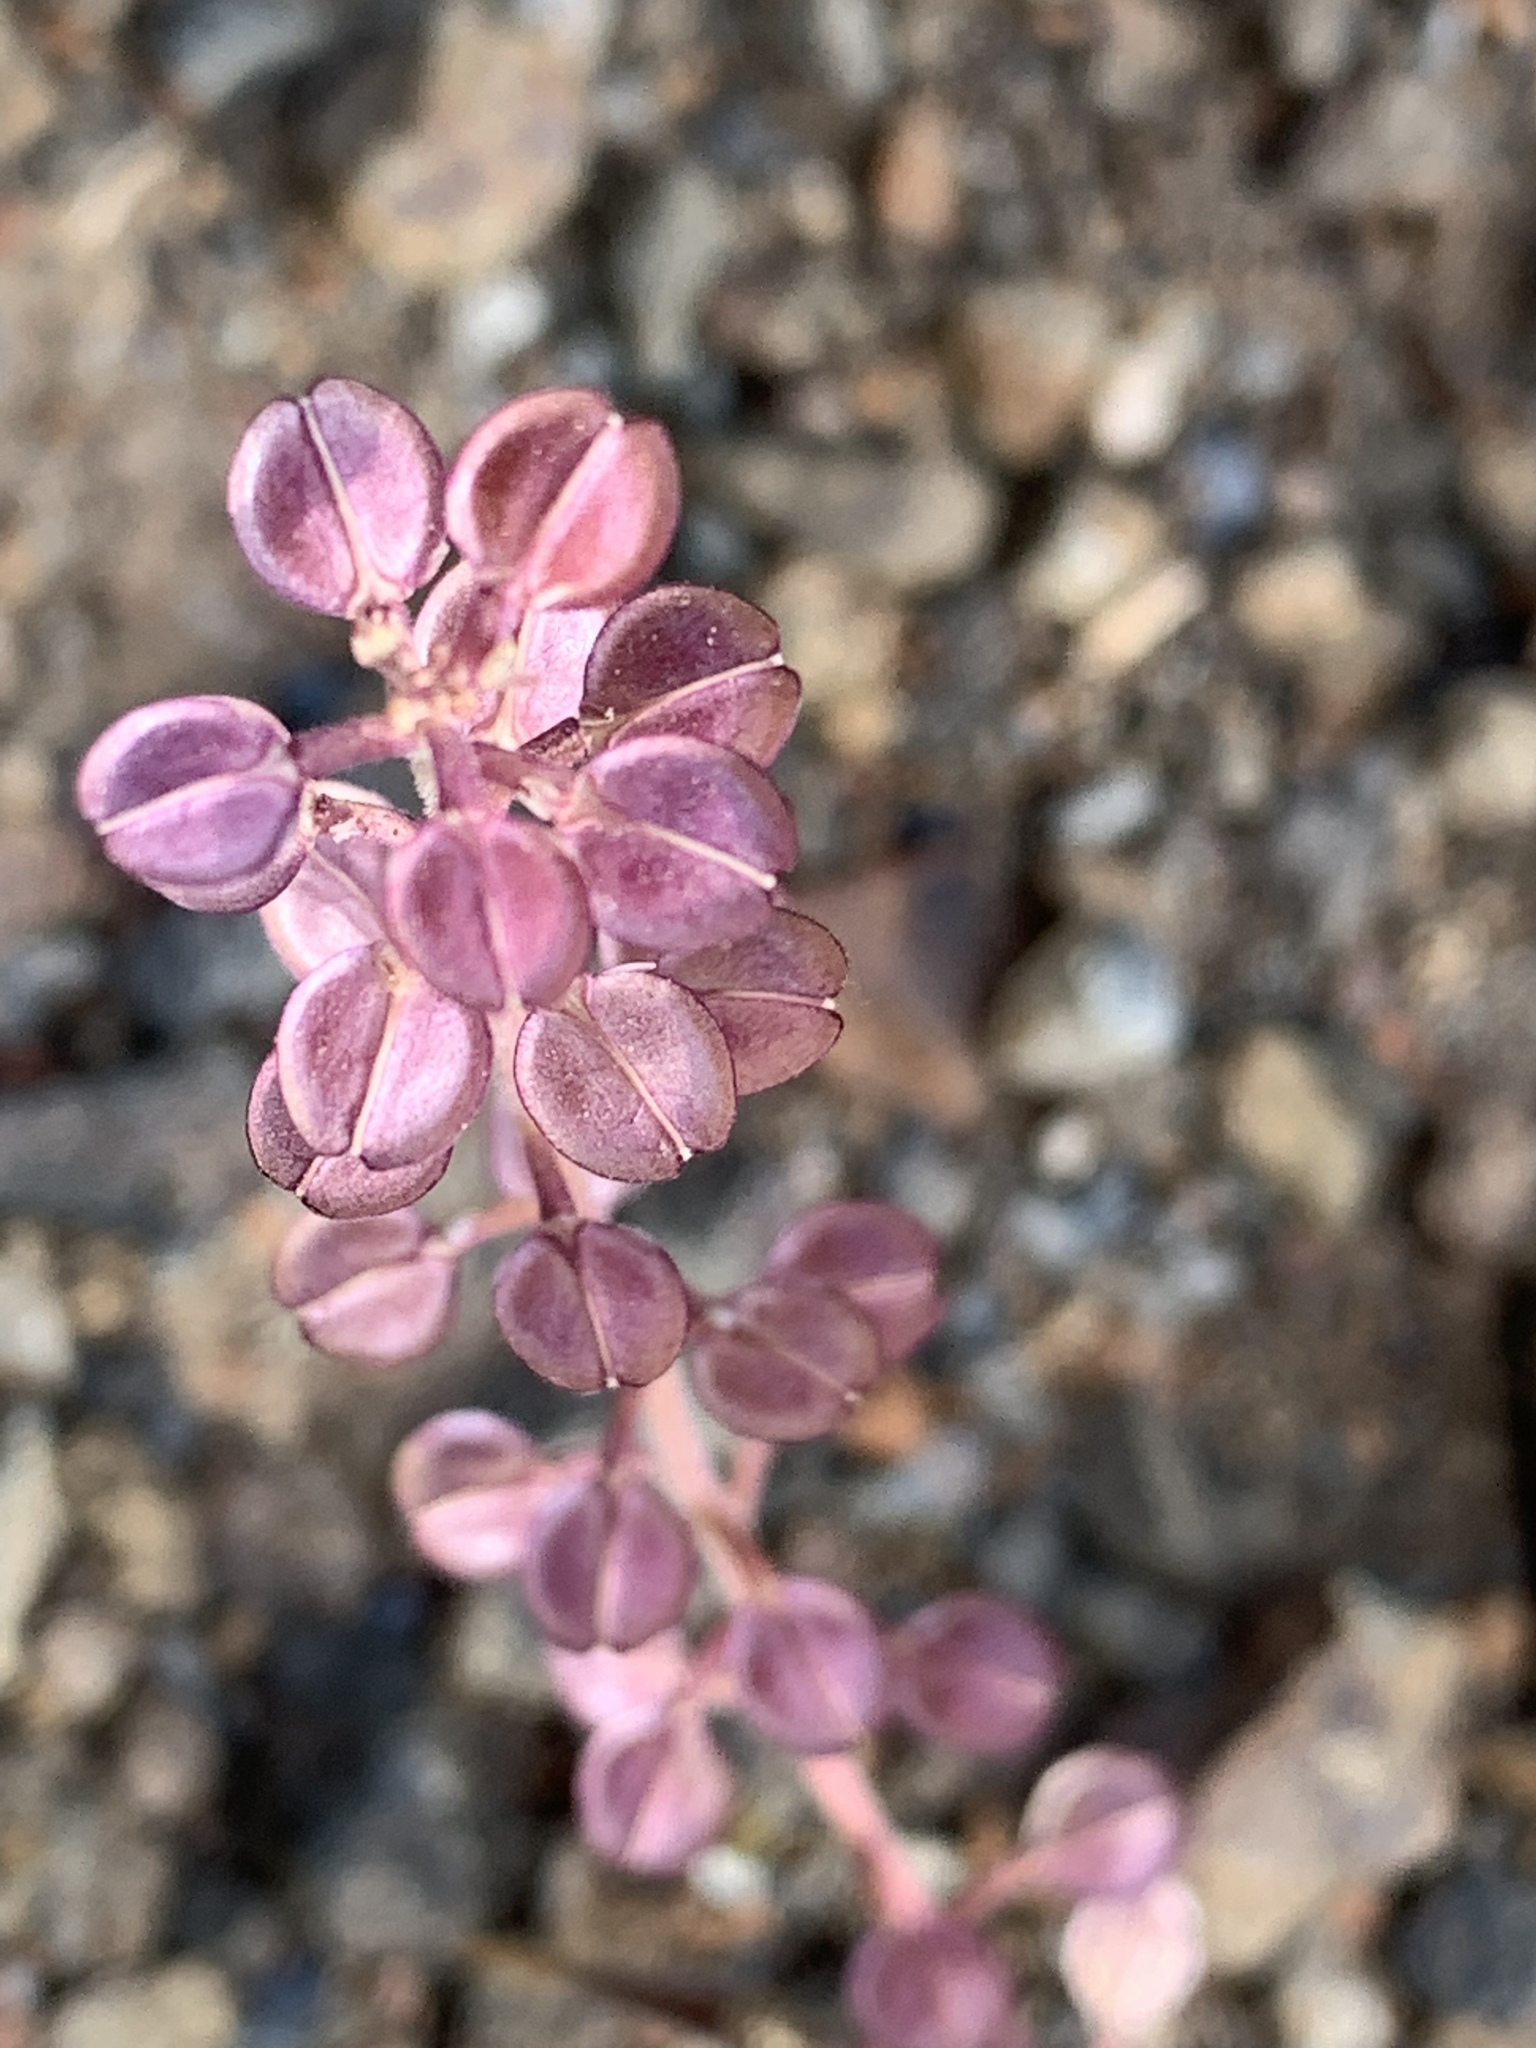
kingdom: Plantae
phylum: Tracheophyta
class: Magnoliopsida
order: Brassicales
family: Brassicaceae
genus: Lepidium
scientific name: Lepidium nitidum
